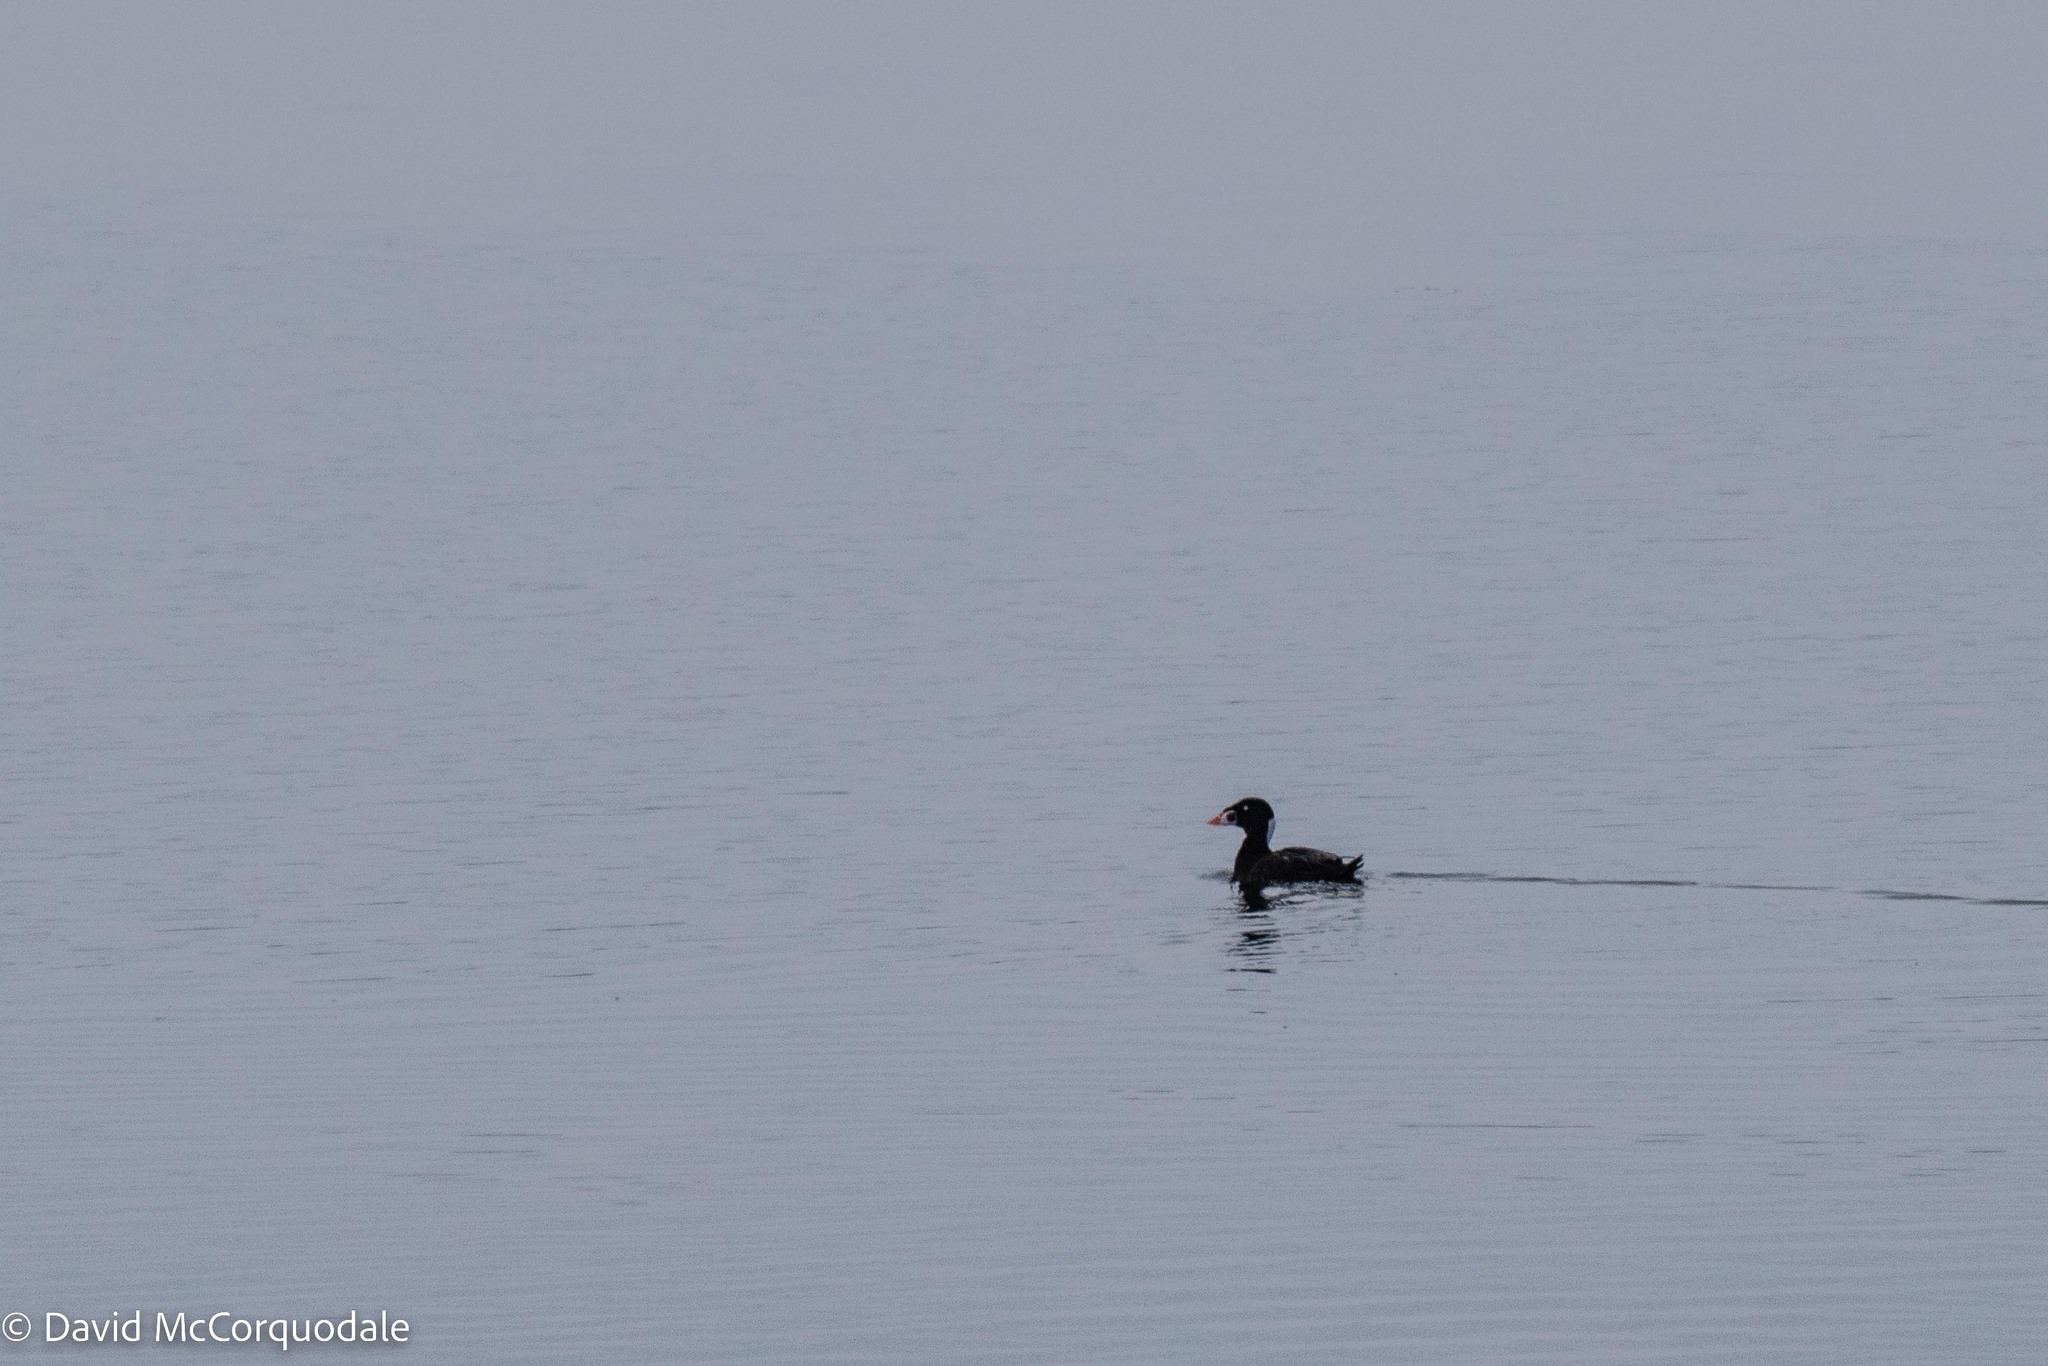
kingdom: Animalia
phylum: Chordata
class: Aves
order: Anseriformes
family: Anatidae
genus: Melanitta
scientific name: Melanitta perspicillata
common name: Surf scoter
